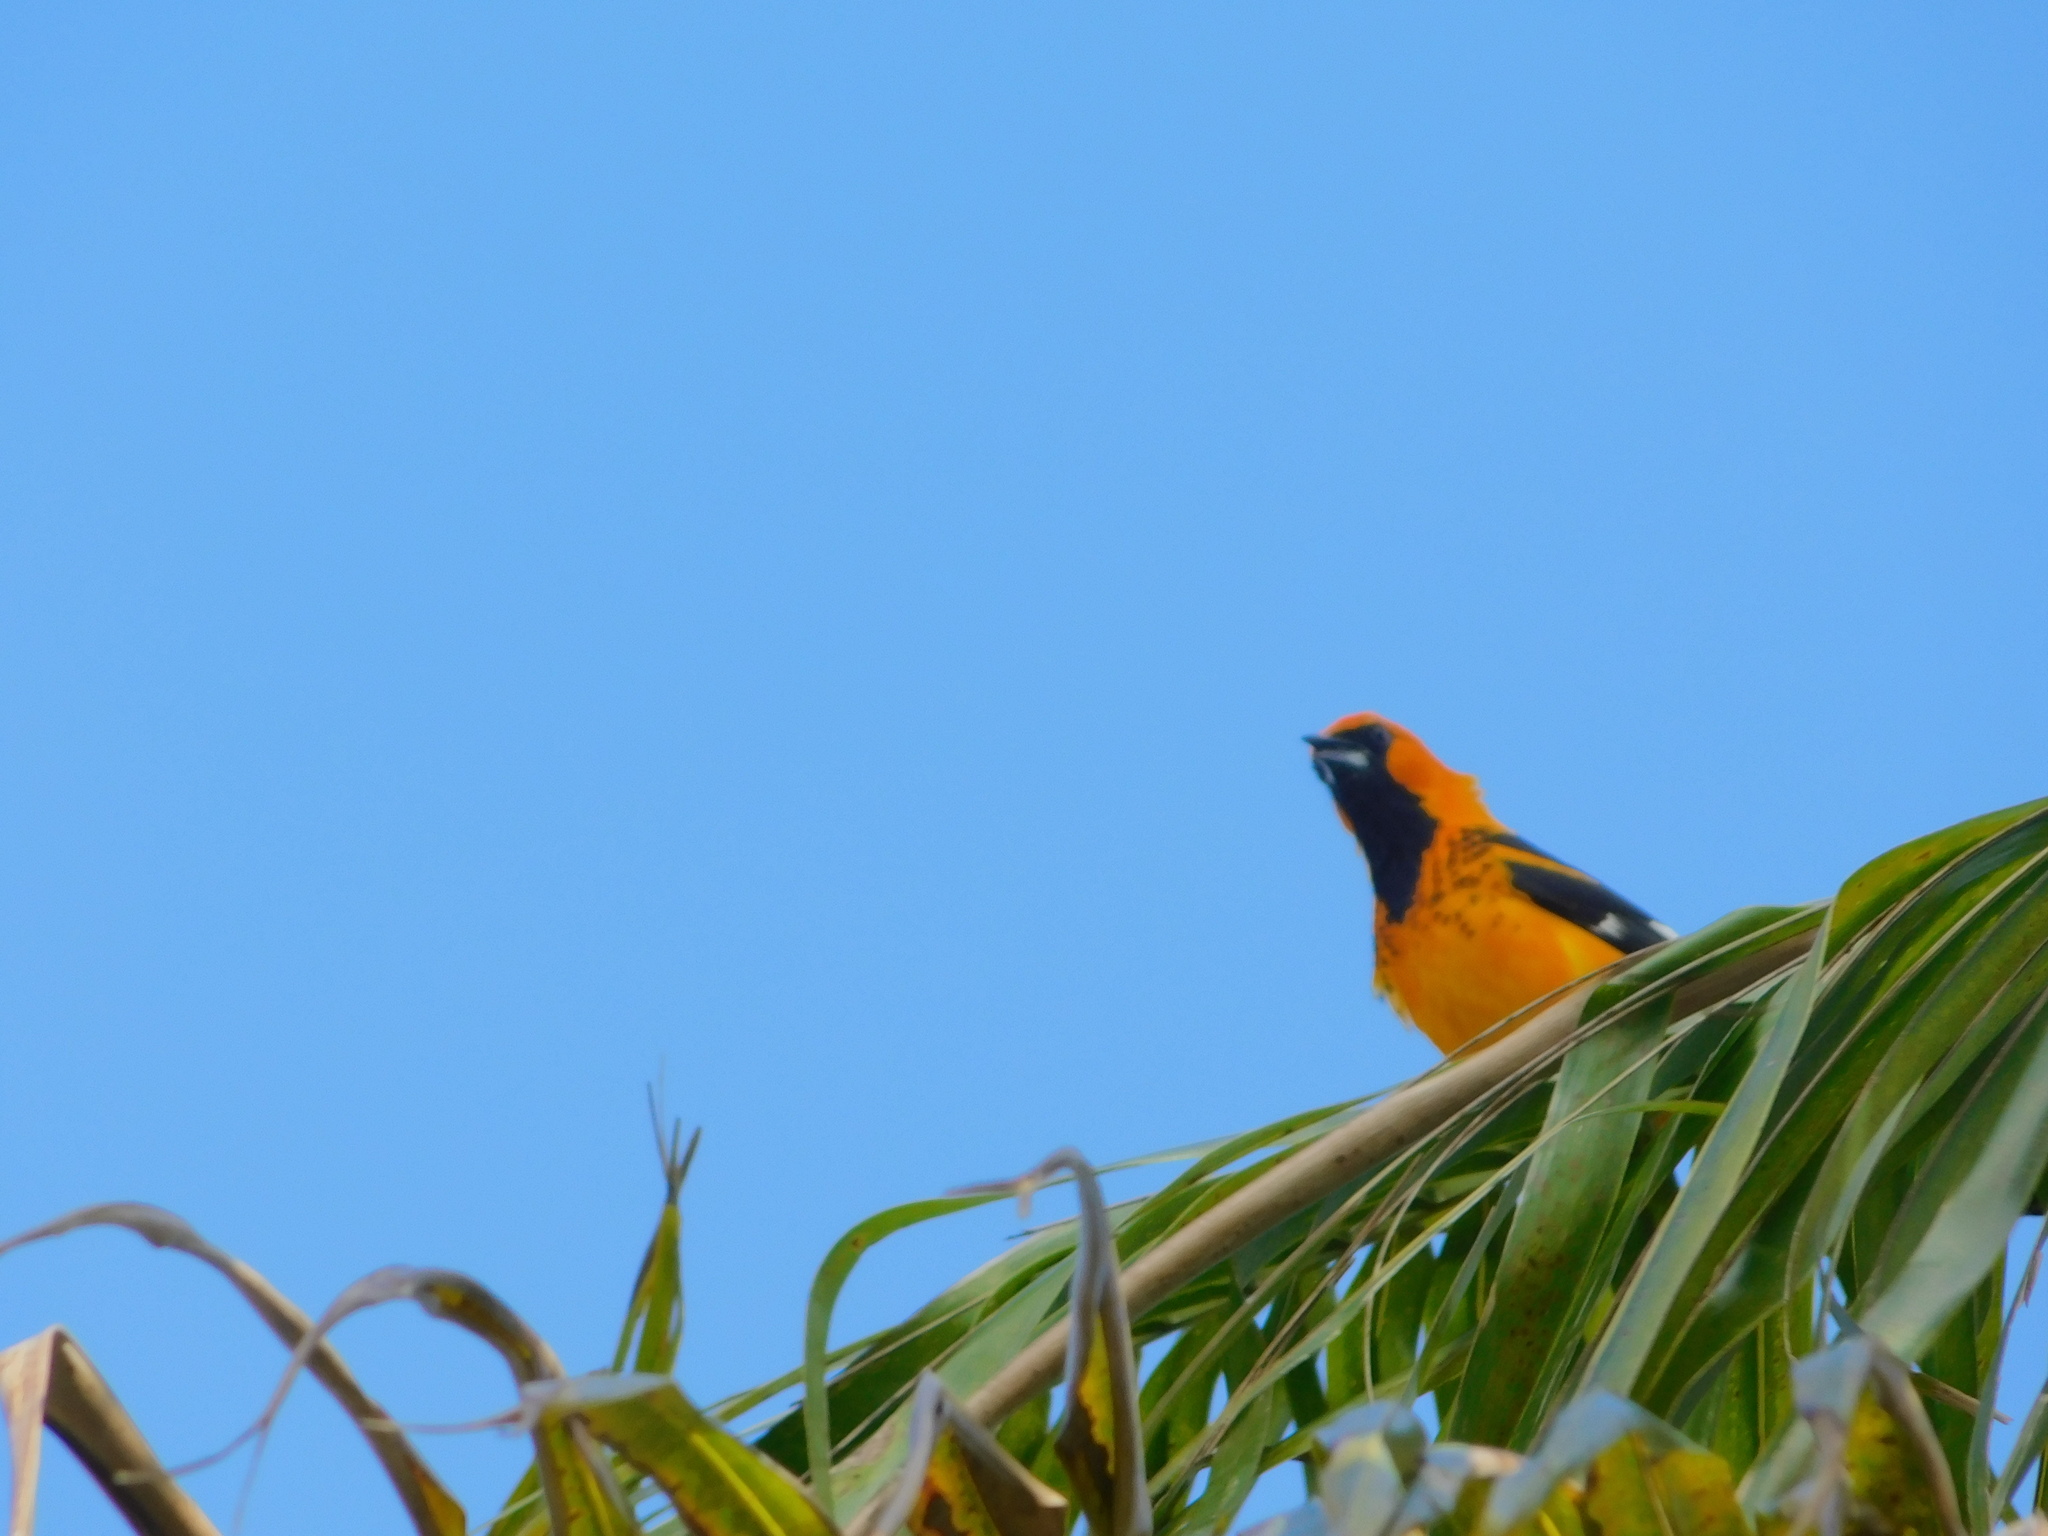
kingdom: Animalia
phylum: Chordata
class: Aves
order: Passeriformes
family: Icteridae
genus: Icterus
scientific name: Icterus pectoralis
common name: Spot-breasted oriole
